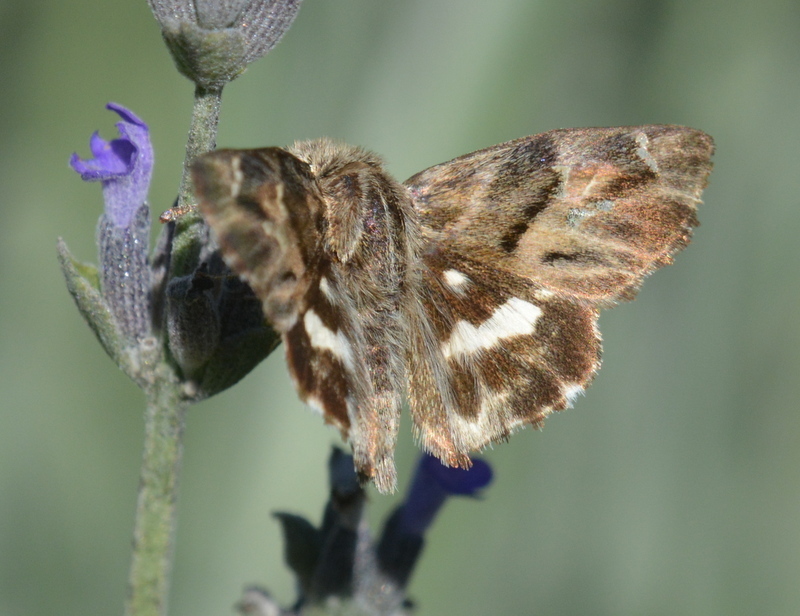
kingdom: Animalia
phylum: Arthropoda
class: Insecta
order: Lepidoptera
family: Hesperiidae
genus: Gomalia
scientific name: Gomalia elma
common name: Green-marbled skipper
